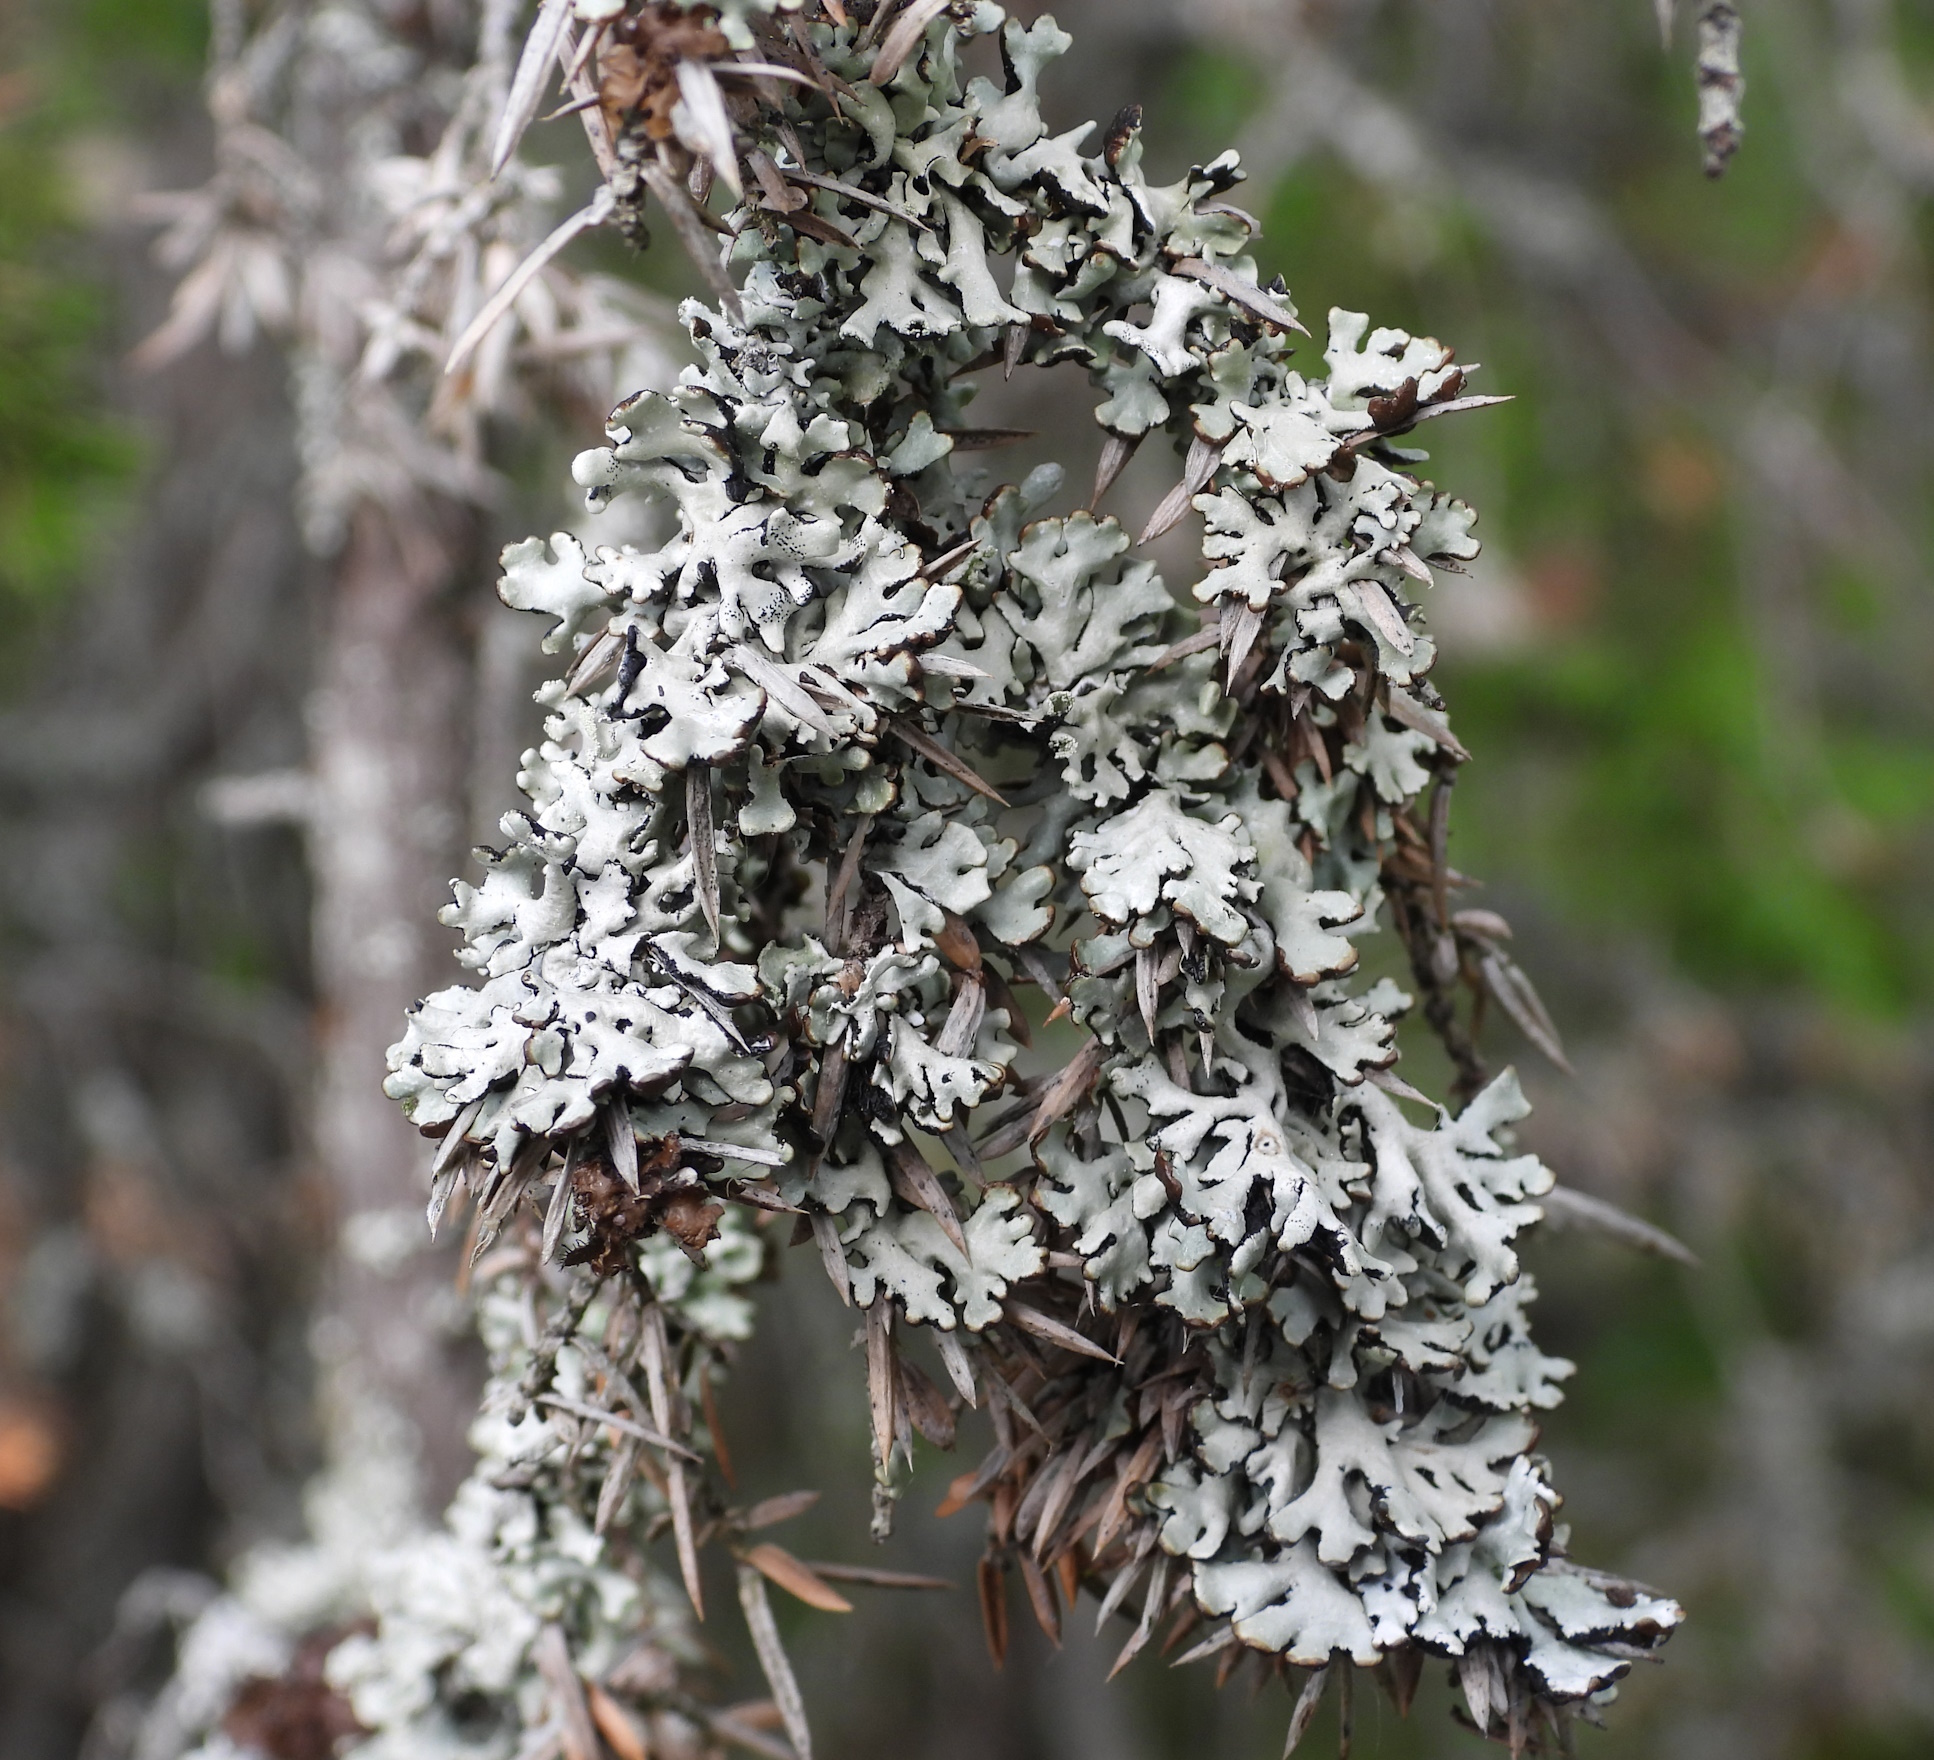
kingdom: Fungi
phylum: Ascomycota
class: Lecanoromycetes
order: Lecanorales
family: Parmeliaceae
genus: Hypogymnia
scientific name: Hypogymnia physodes
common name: Dark crottle
